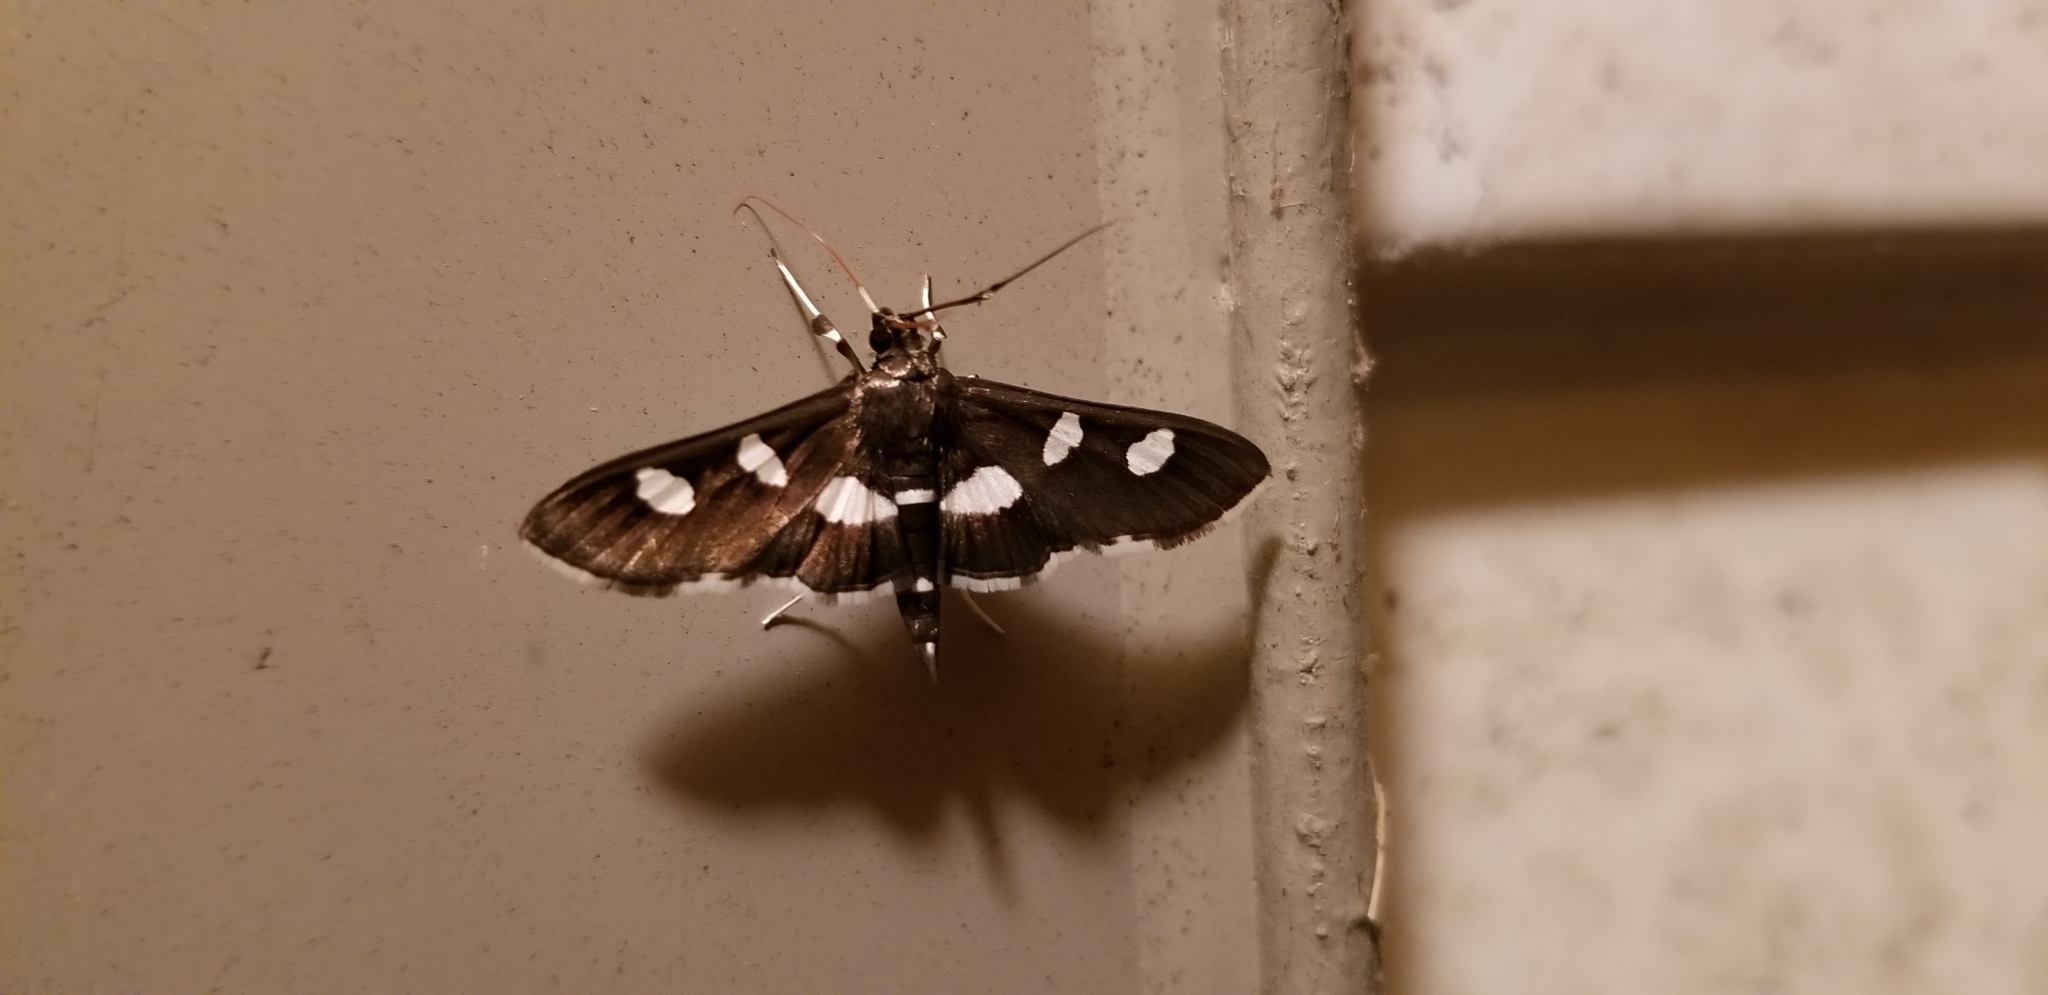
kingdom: Animalia
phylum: Arthropoda
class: Insecta
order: Lepidoptera
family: Crambidae
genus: Desmia
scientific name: Desmia
